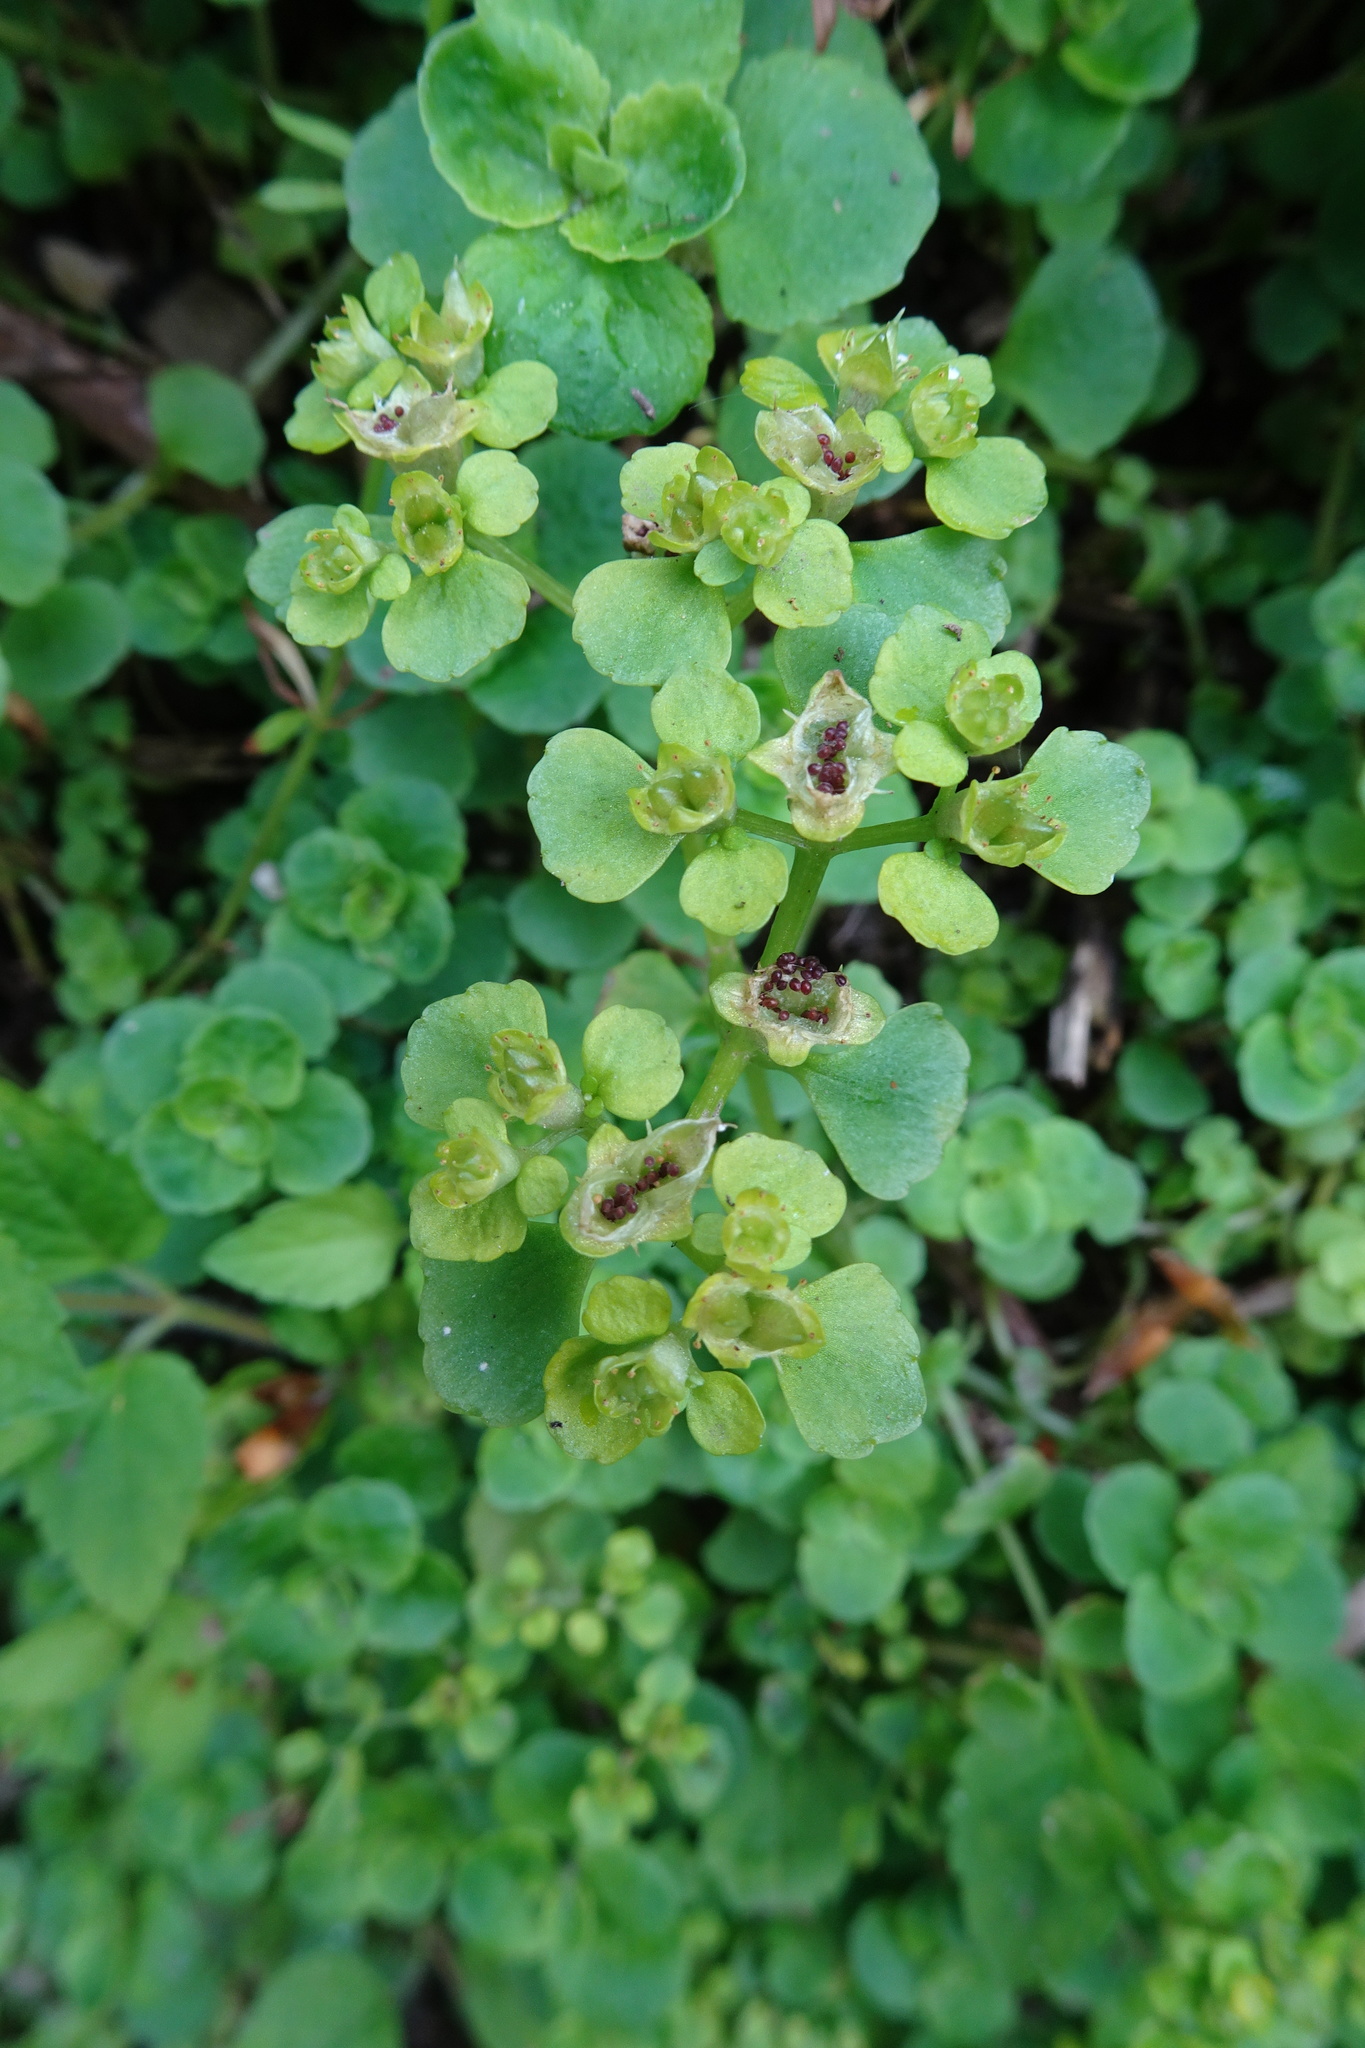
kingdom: Plantae
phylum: Tracheophyta
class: Magnoliopsida
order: Saxifragales
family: Saxifragaceae
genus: Chrysosplenium
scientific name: Chrysosplenium oppositifolium
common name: Opposite-leaved golden-saxifrage
